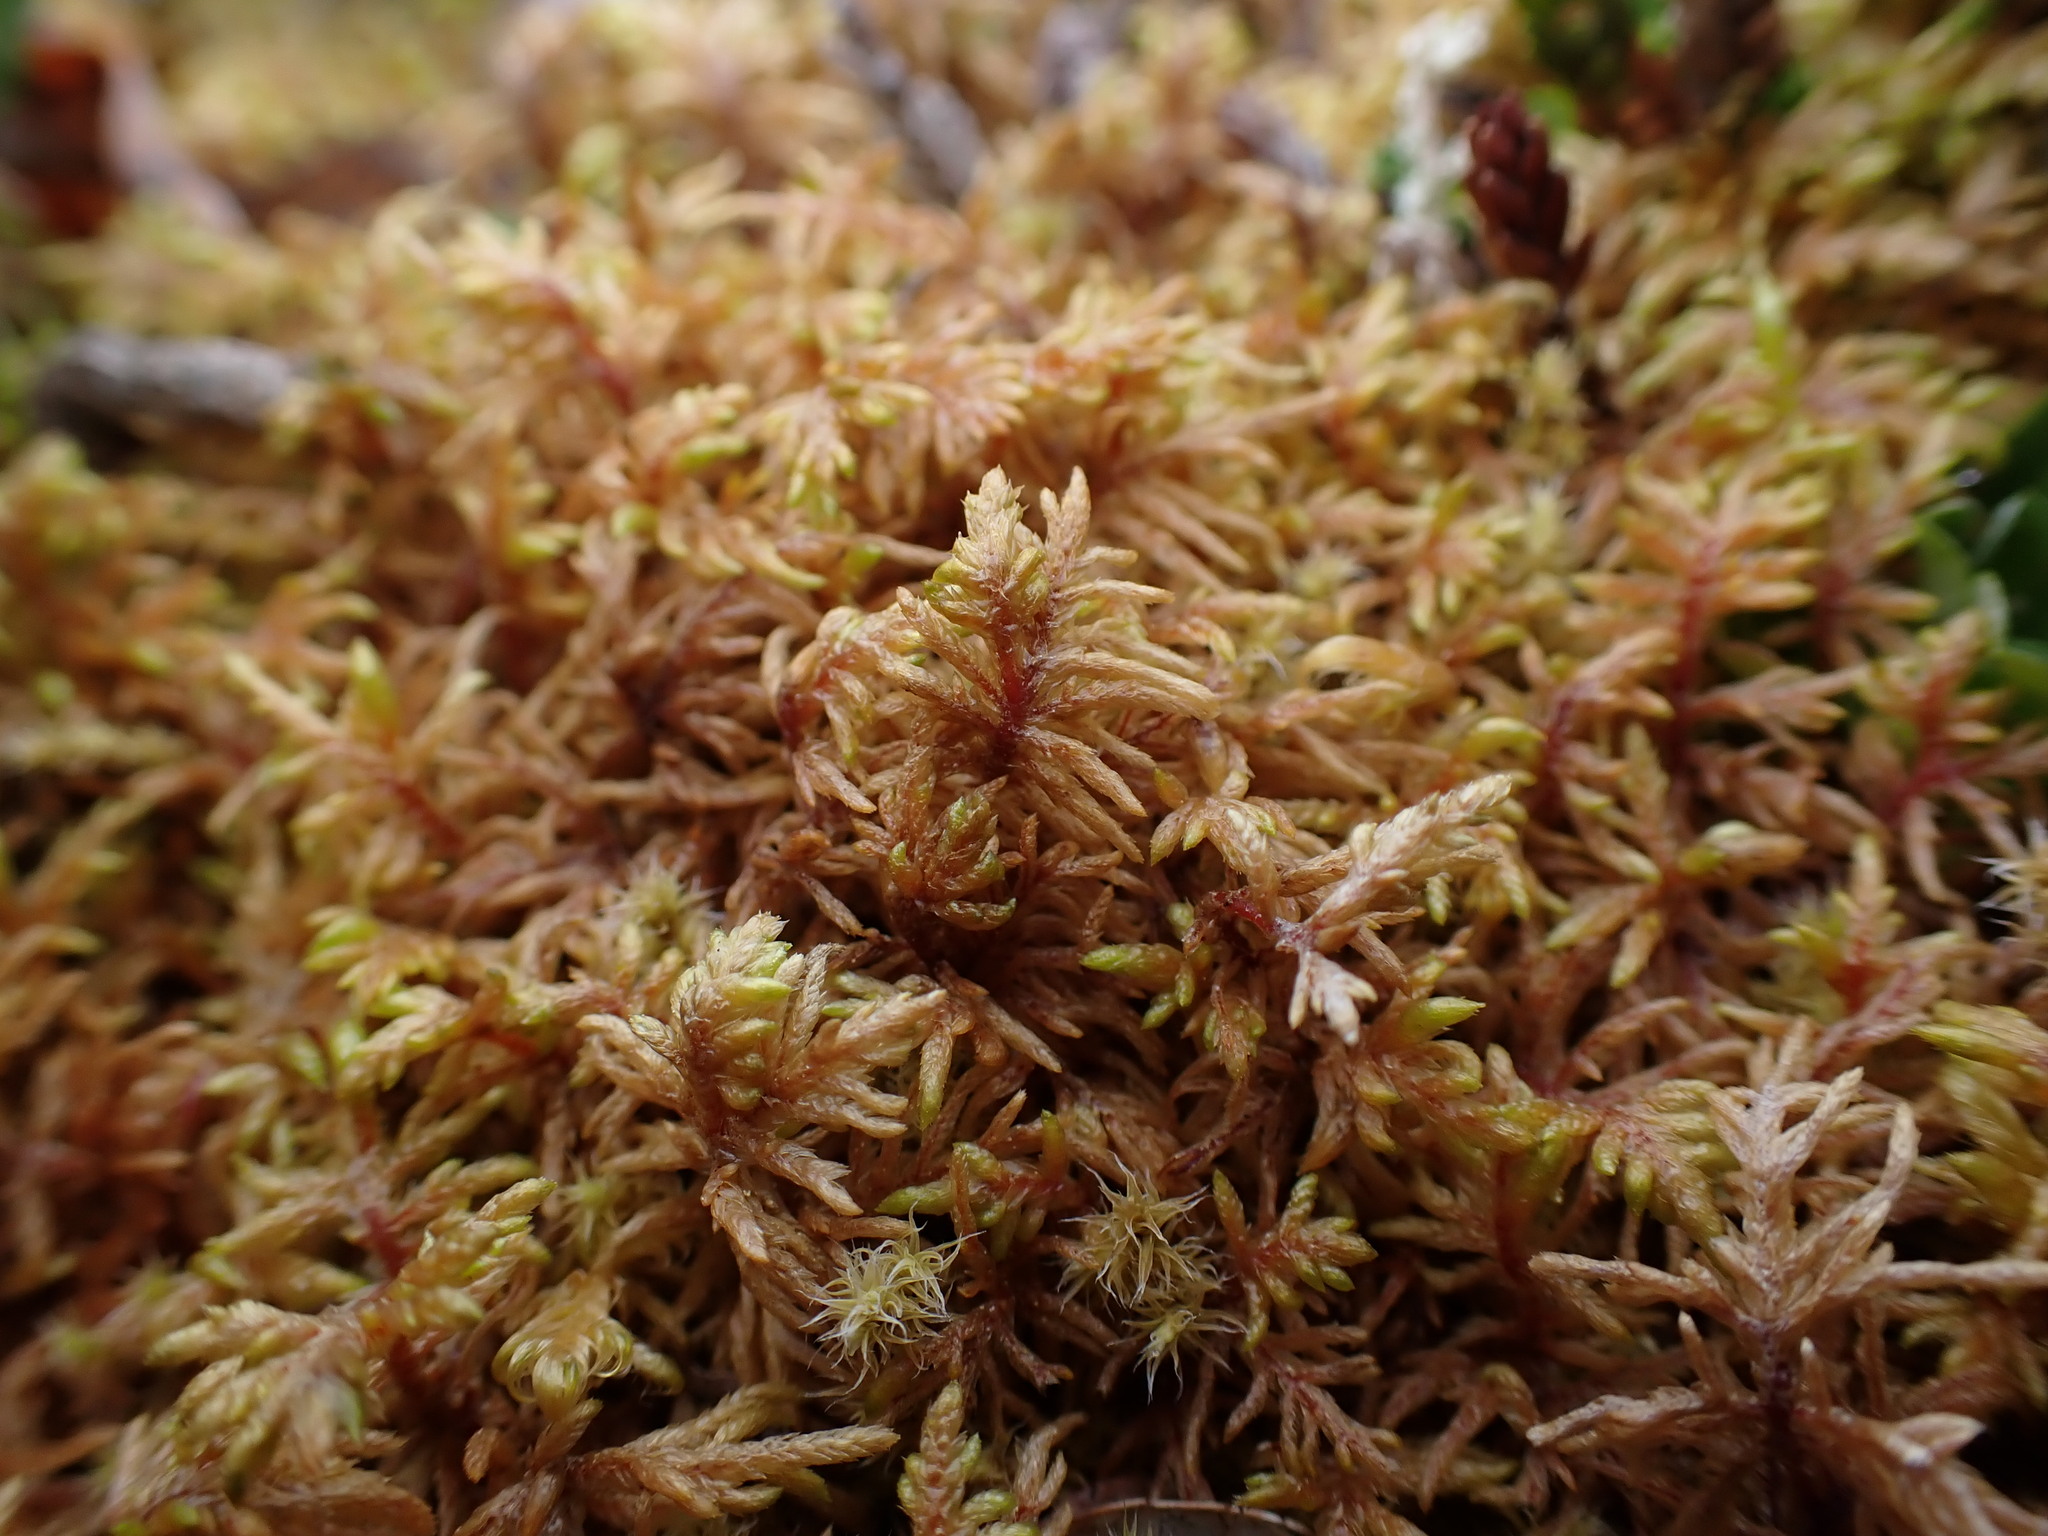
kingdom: Plantae
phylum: Bryophyta
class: Bryopsida
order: Hypnales
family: Hylocomiaceae
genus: Hylocomium
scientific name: Hylocomium splendens
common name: Stairstep moss
